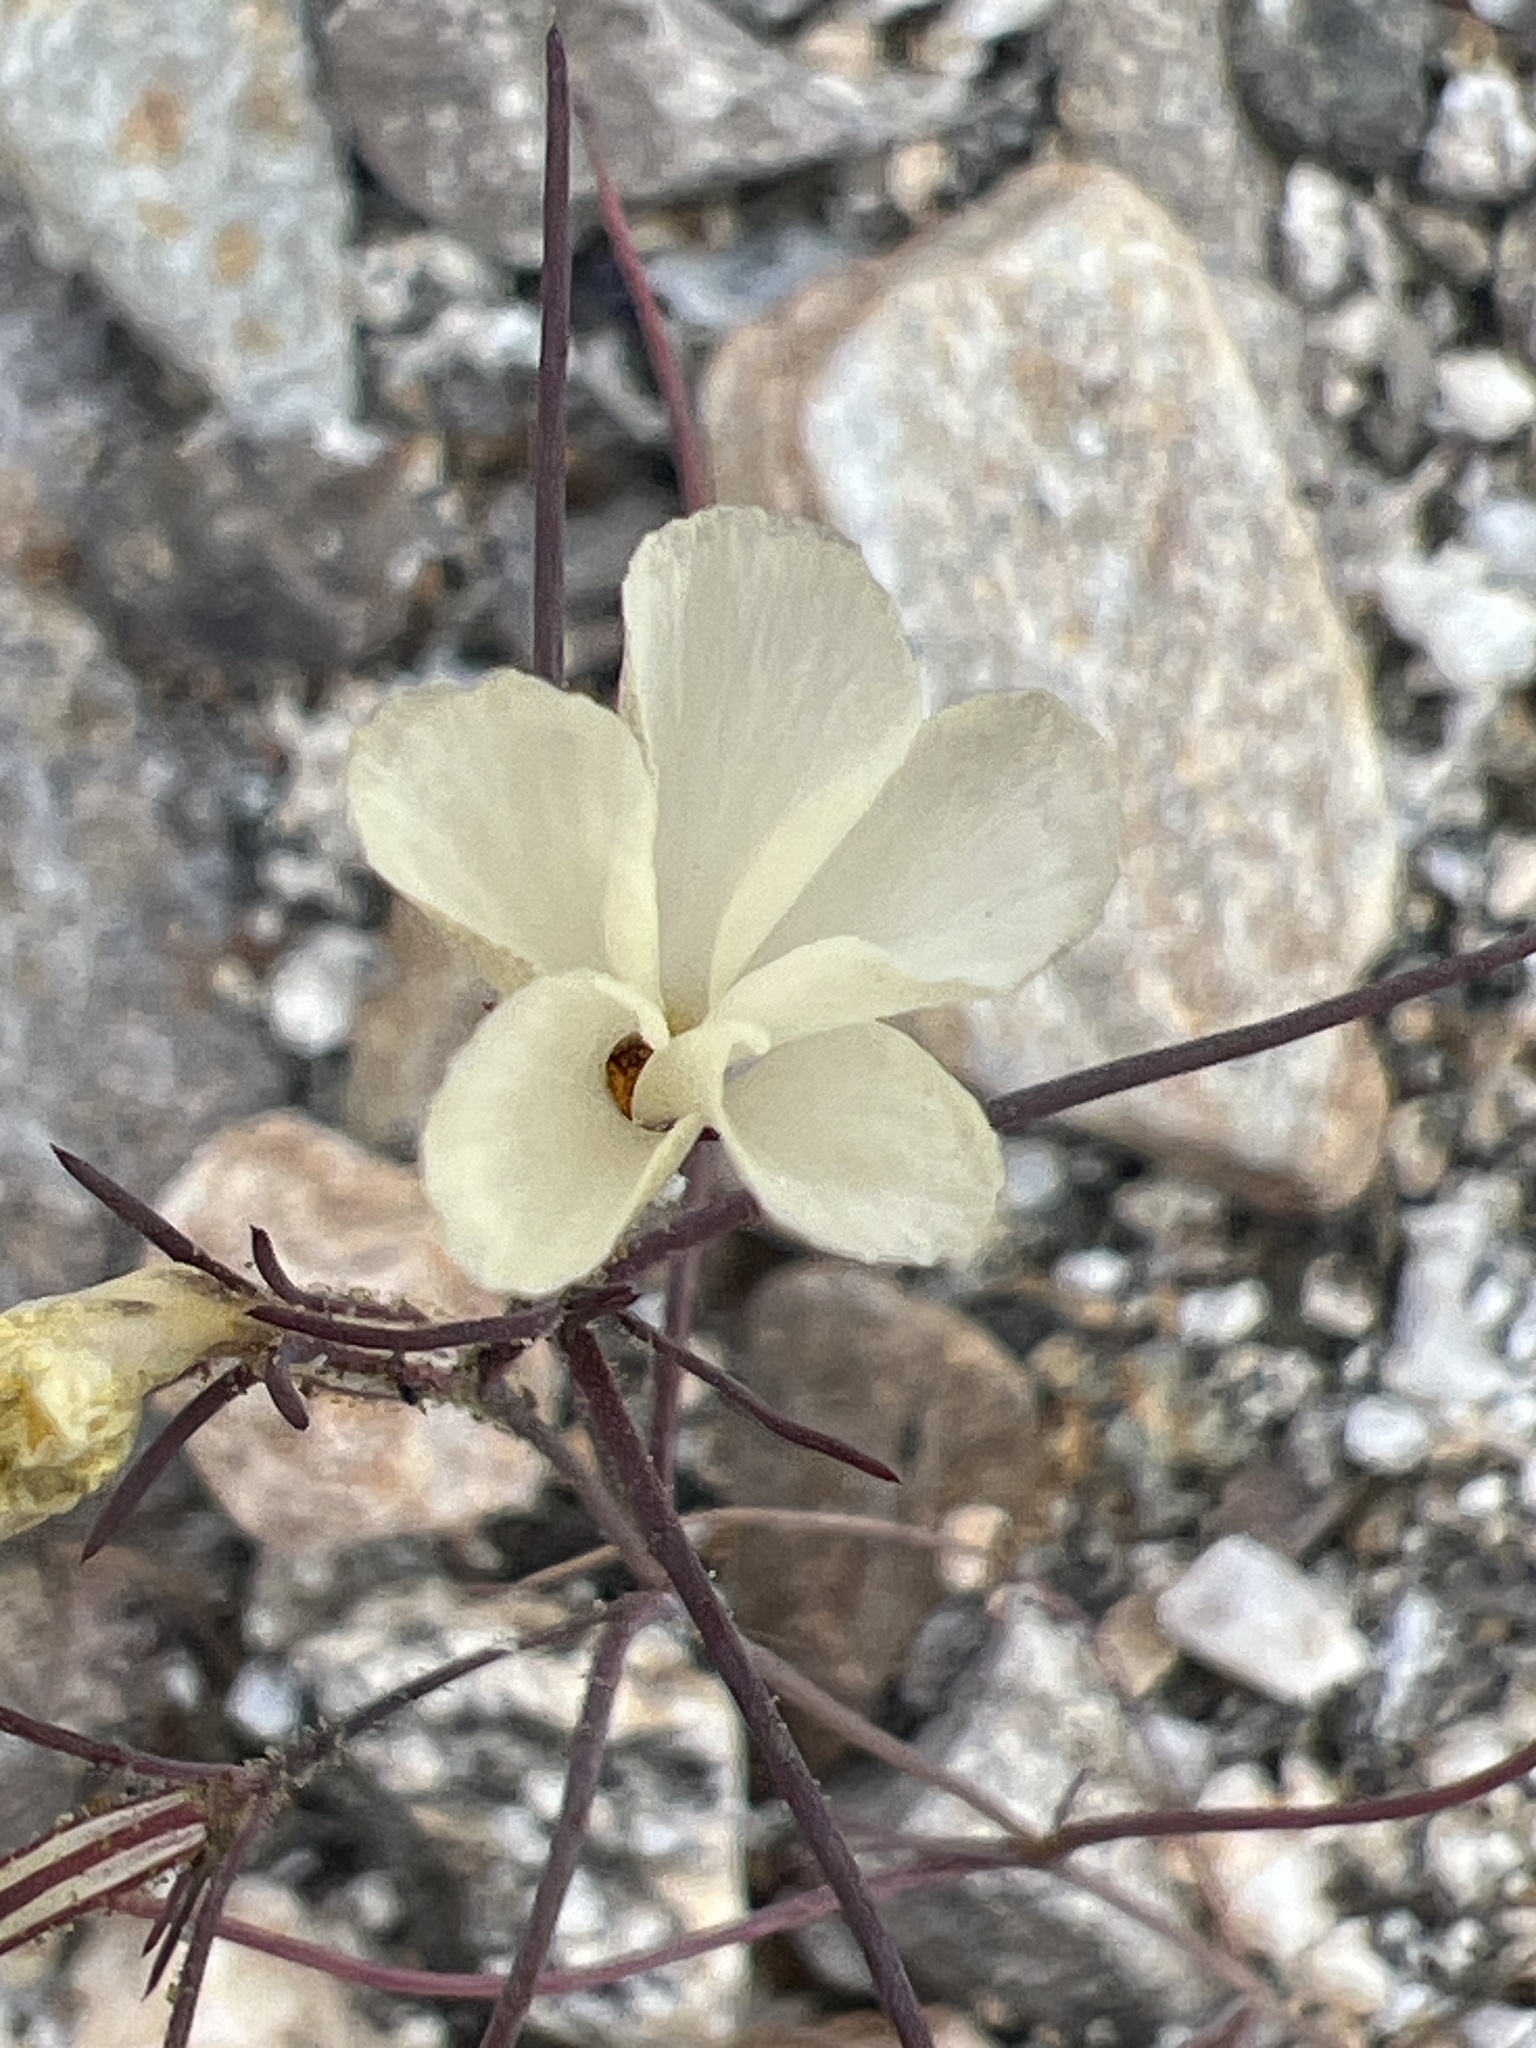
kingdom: Plantae
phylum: Tracheophyta
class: Magnoliopsida
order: Ericales
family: Polemoniaceae
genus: Linanthus
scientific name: Linanthus jonesii
